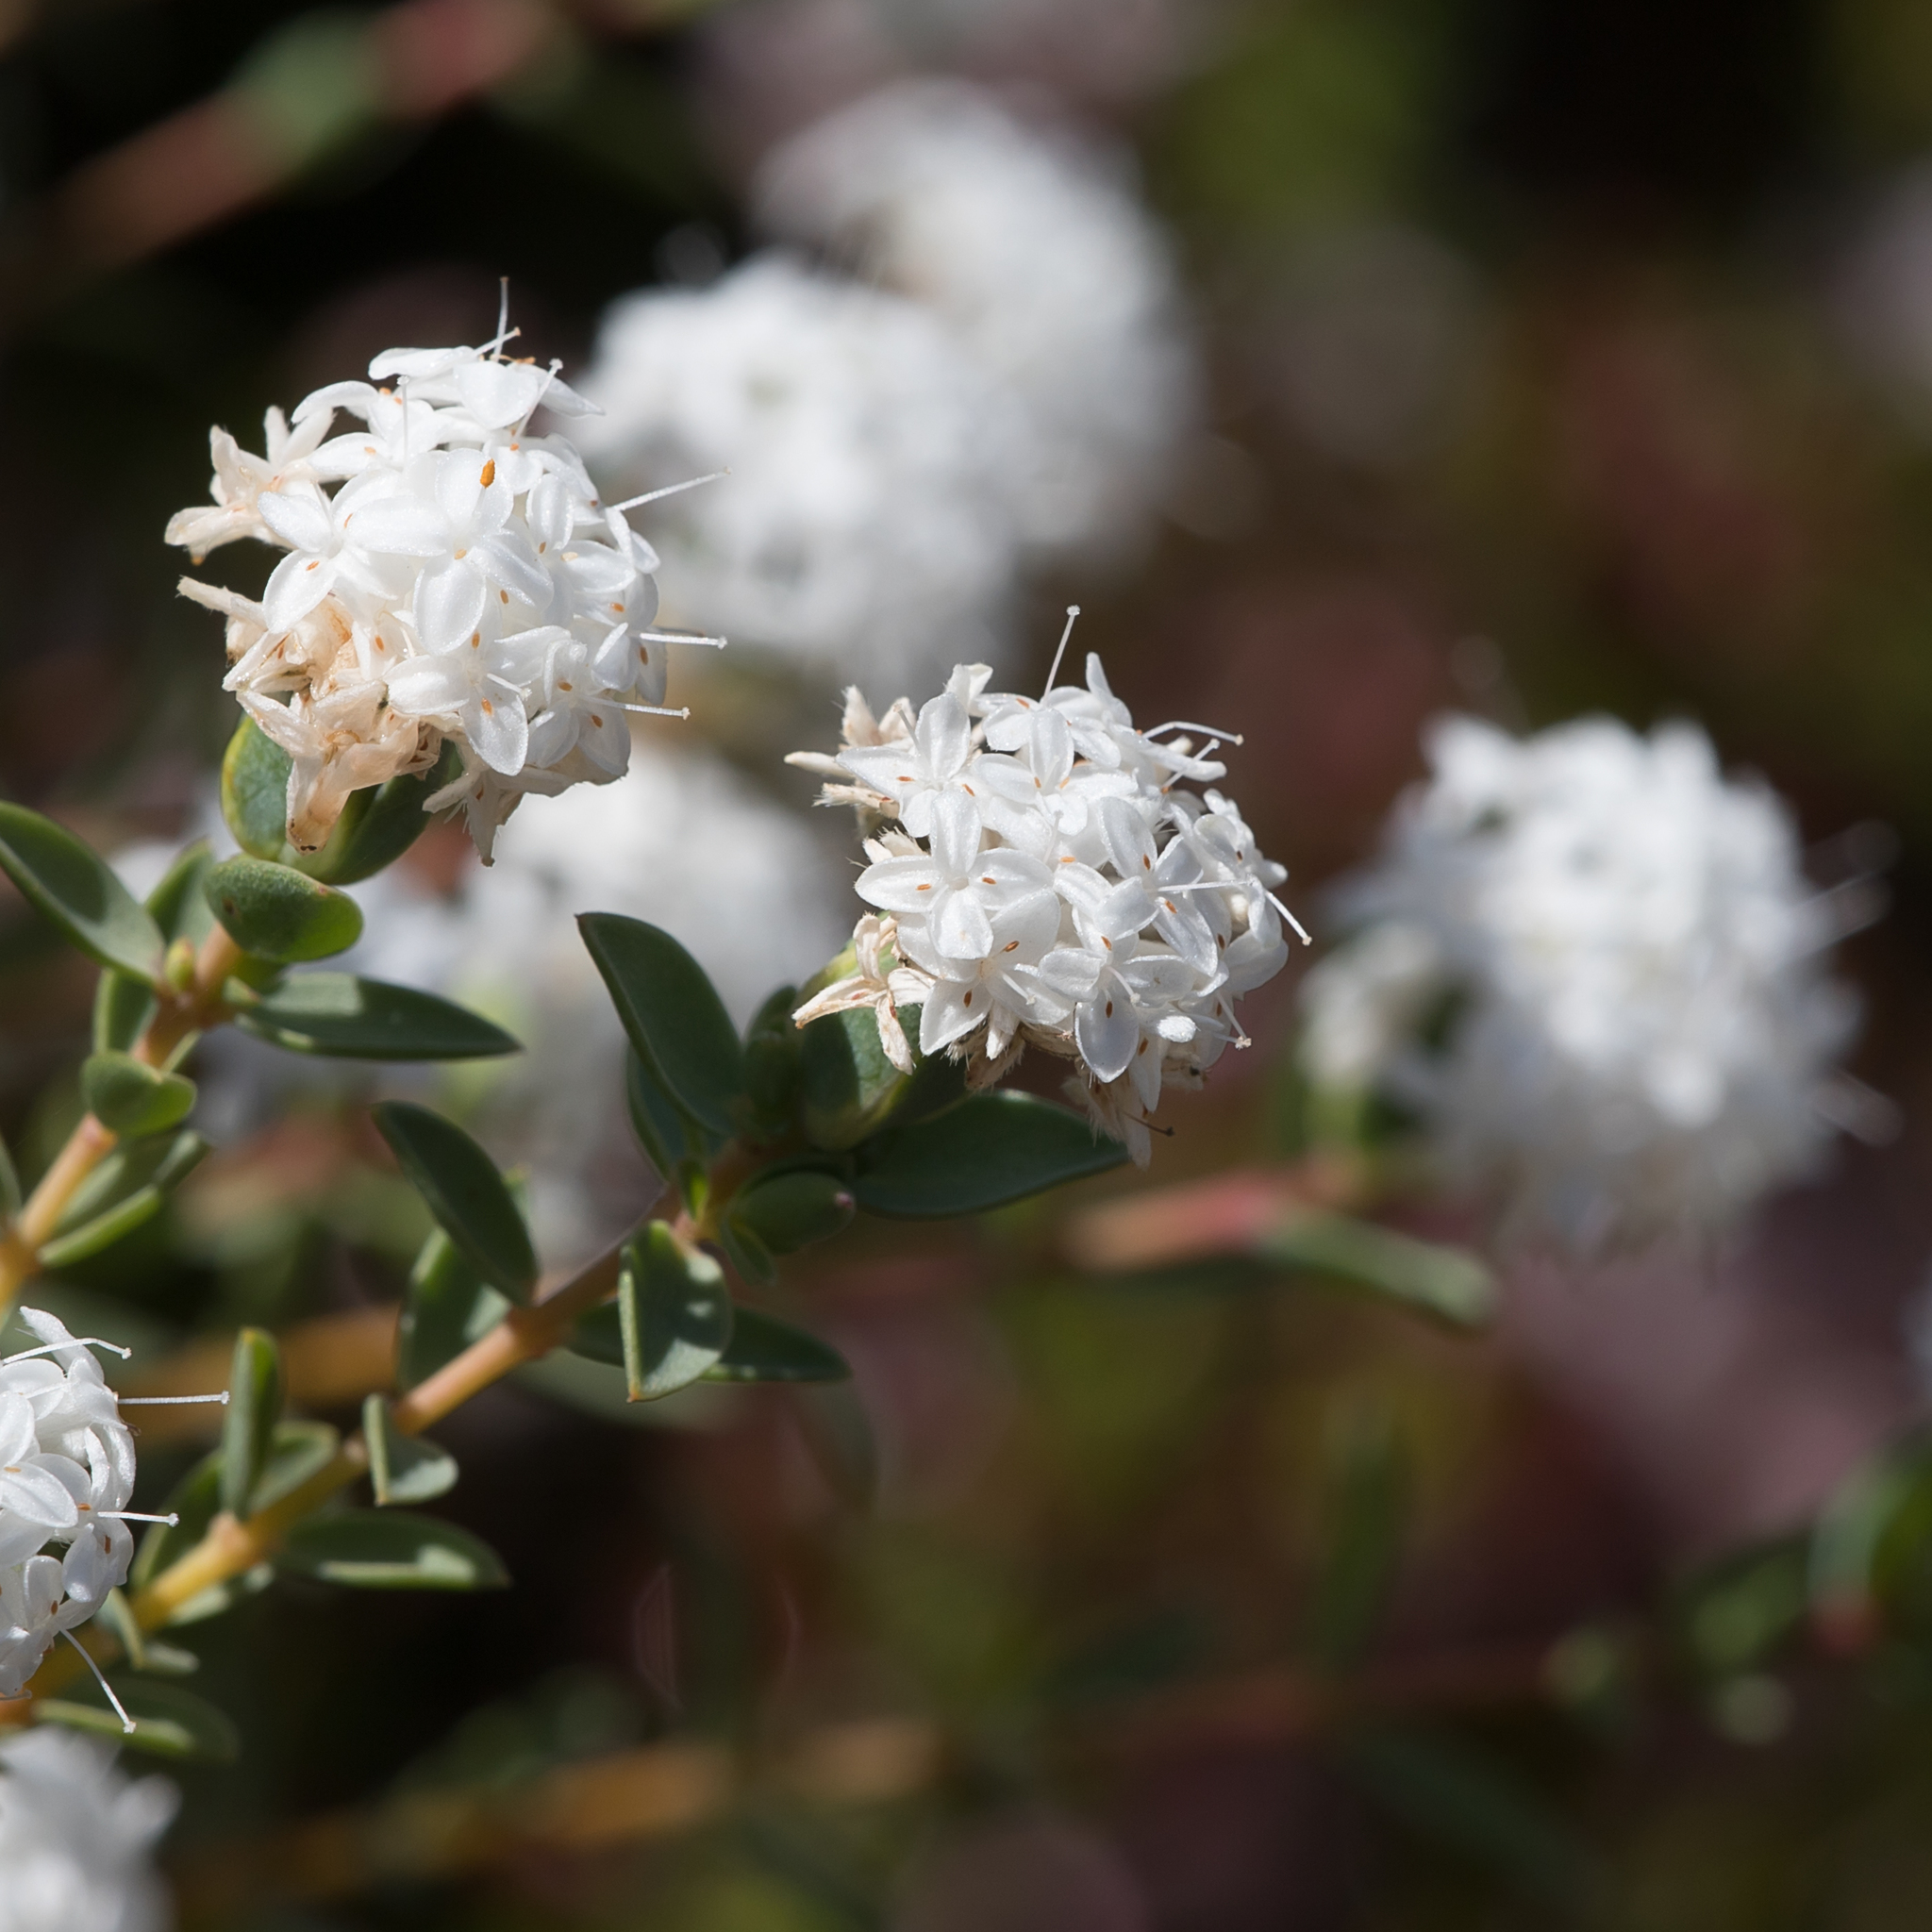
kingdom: Plantae
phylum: Tracheophyta
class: Magnoliopsida
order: Malvales
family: Thymelaeaceae
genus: Pimelea
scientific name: Pimelea glauca
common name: Smooth riceflower
